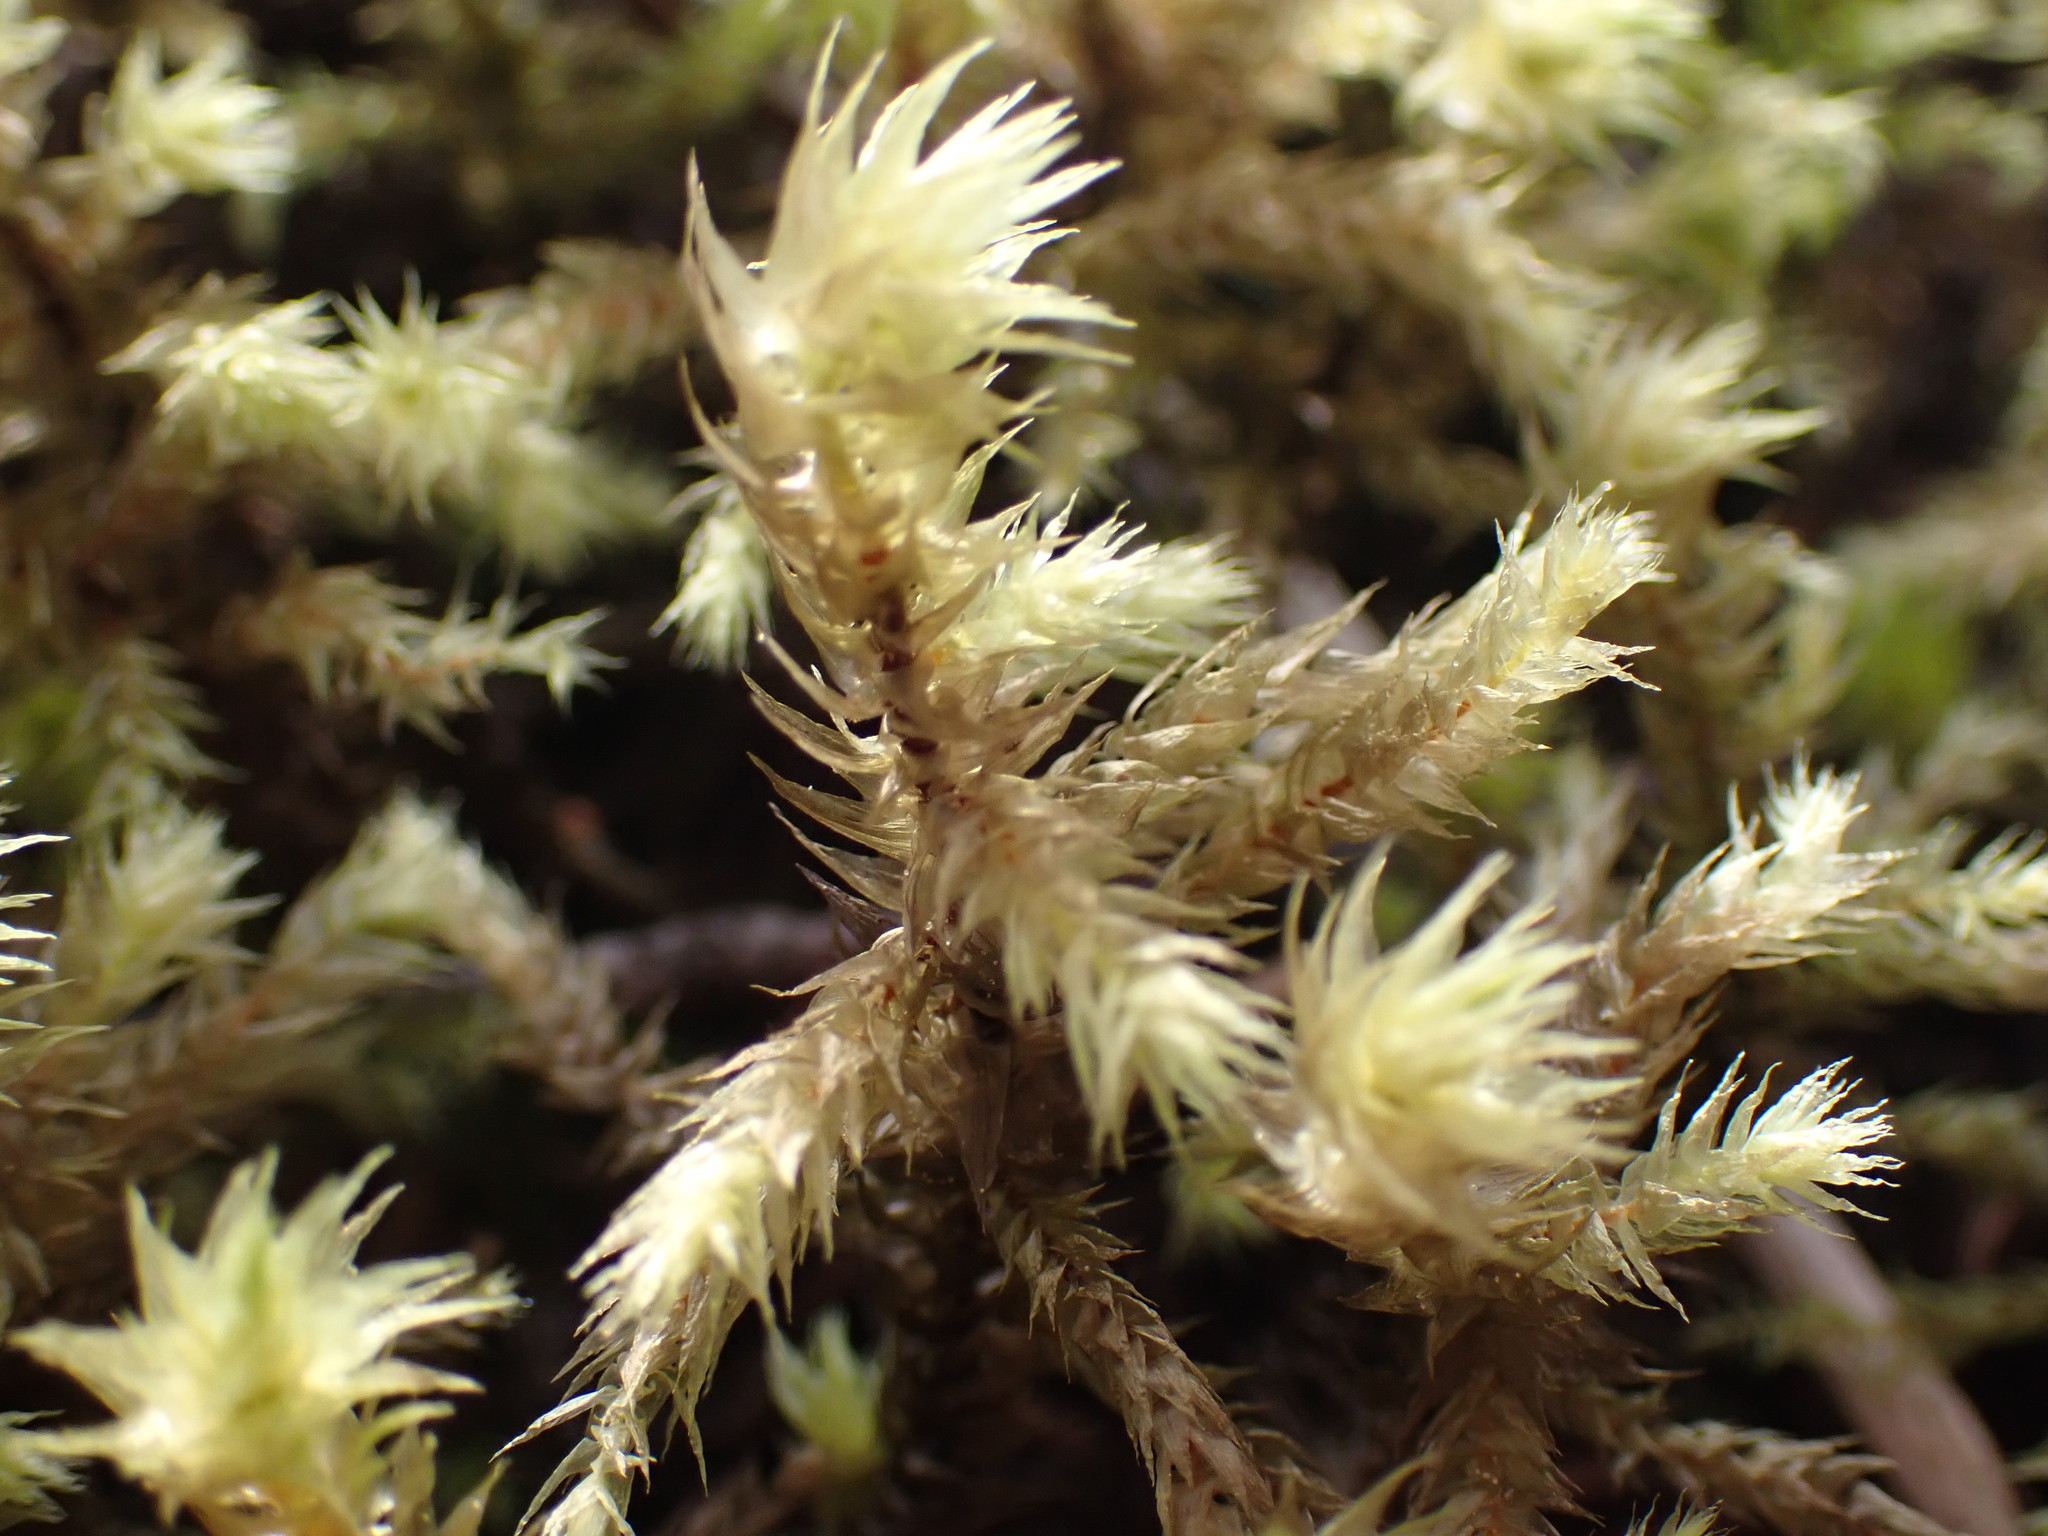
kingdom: Plantae
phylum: Bryophyta
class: Bryopsida
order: Hypnales
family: Hylocomiaceae
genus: Hylocomiadelphus
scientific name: Hylocomiadelphus triquetrus
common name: Rough goose neck moss
